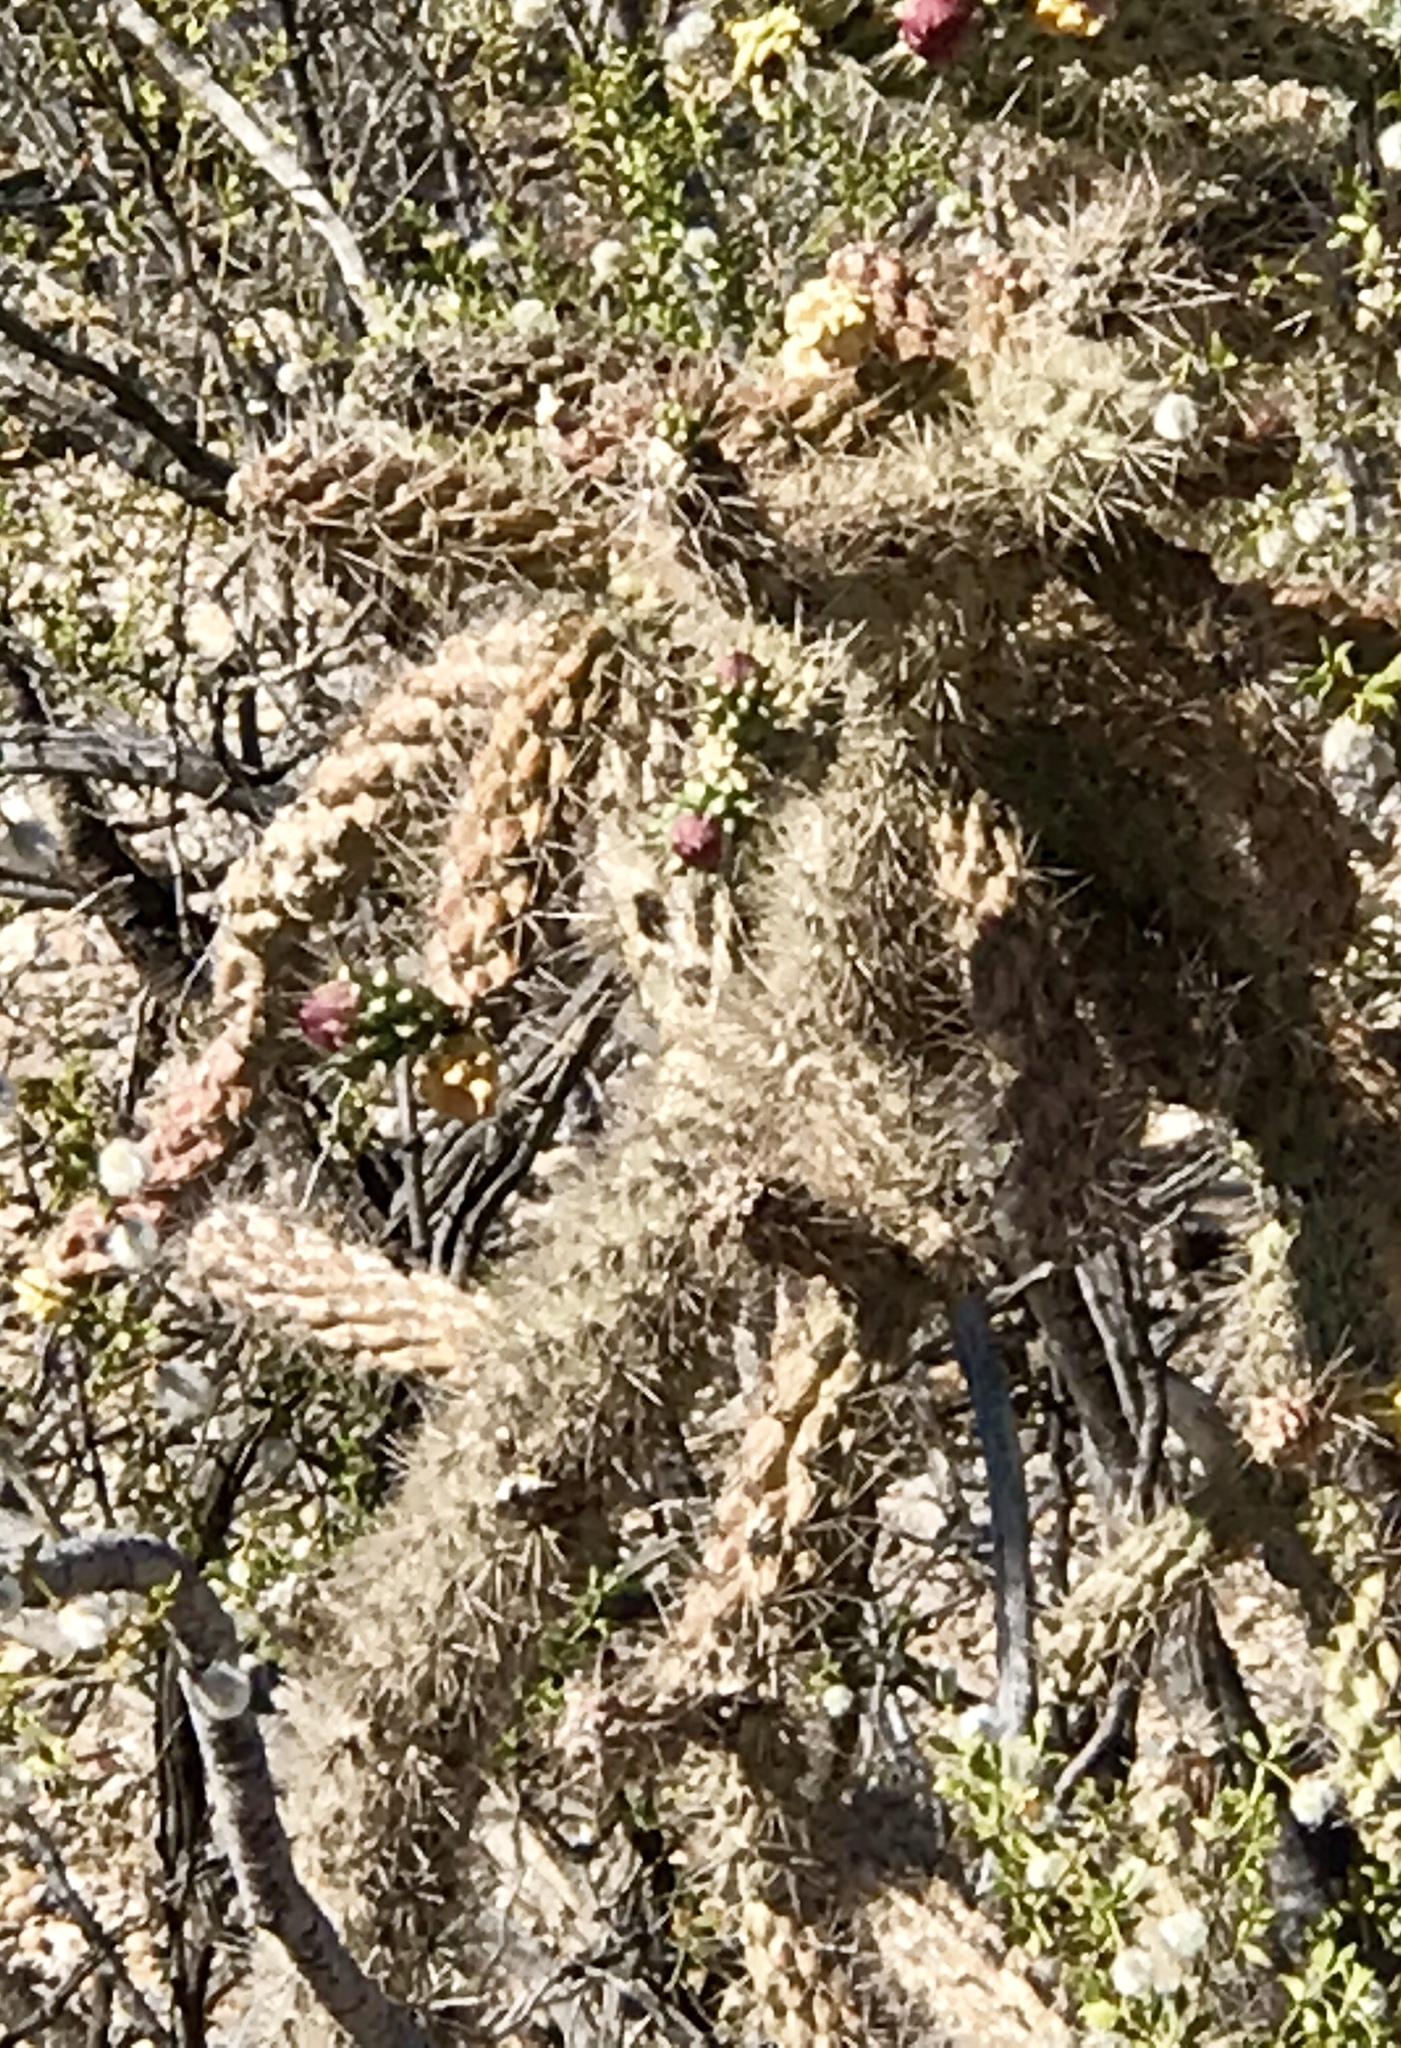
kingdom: Plantae
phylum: Tracheophyta
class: Magnoliopsida
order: Caryophyllales
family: Cactaceae
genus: Cylindropuntia
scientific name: Cylindropuntia imbricata
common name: Candelabrum cactus
